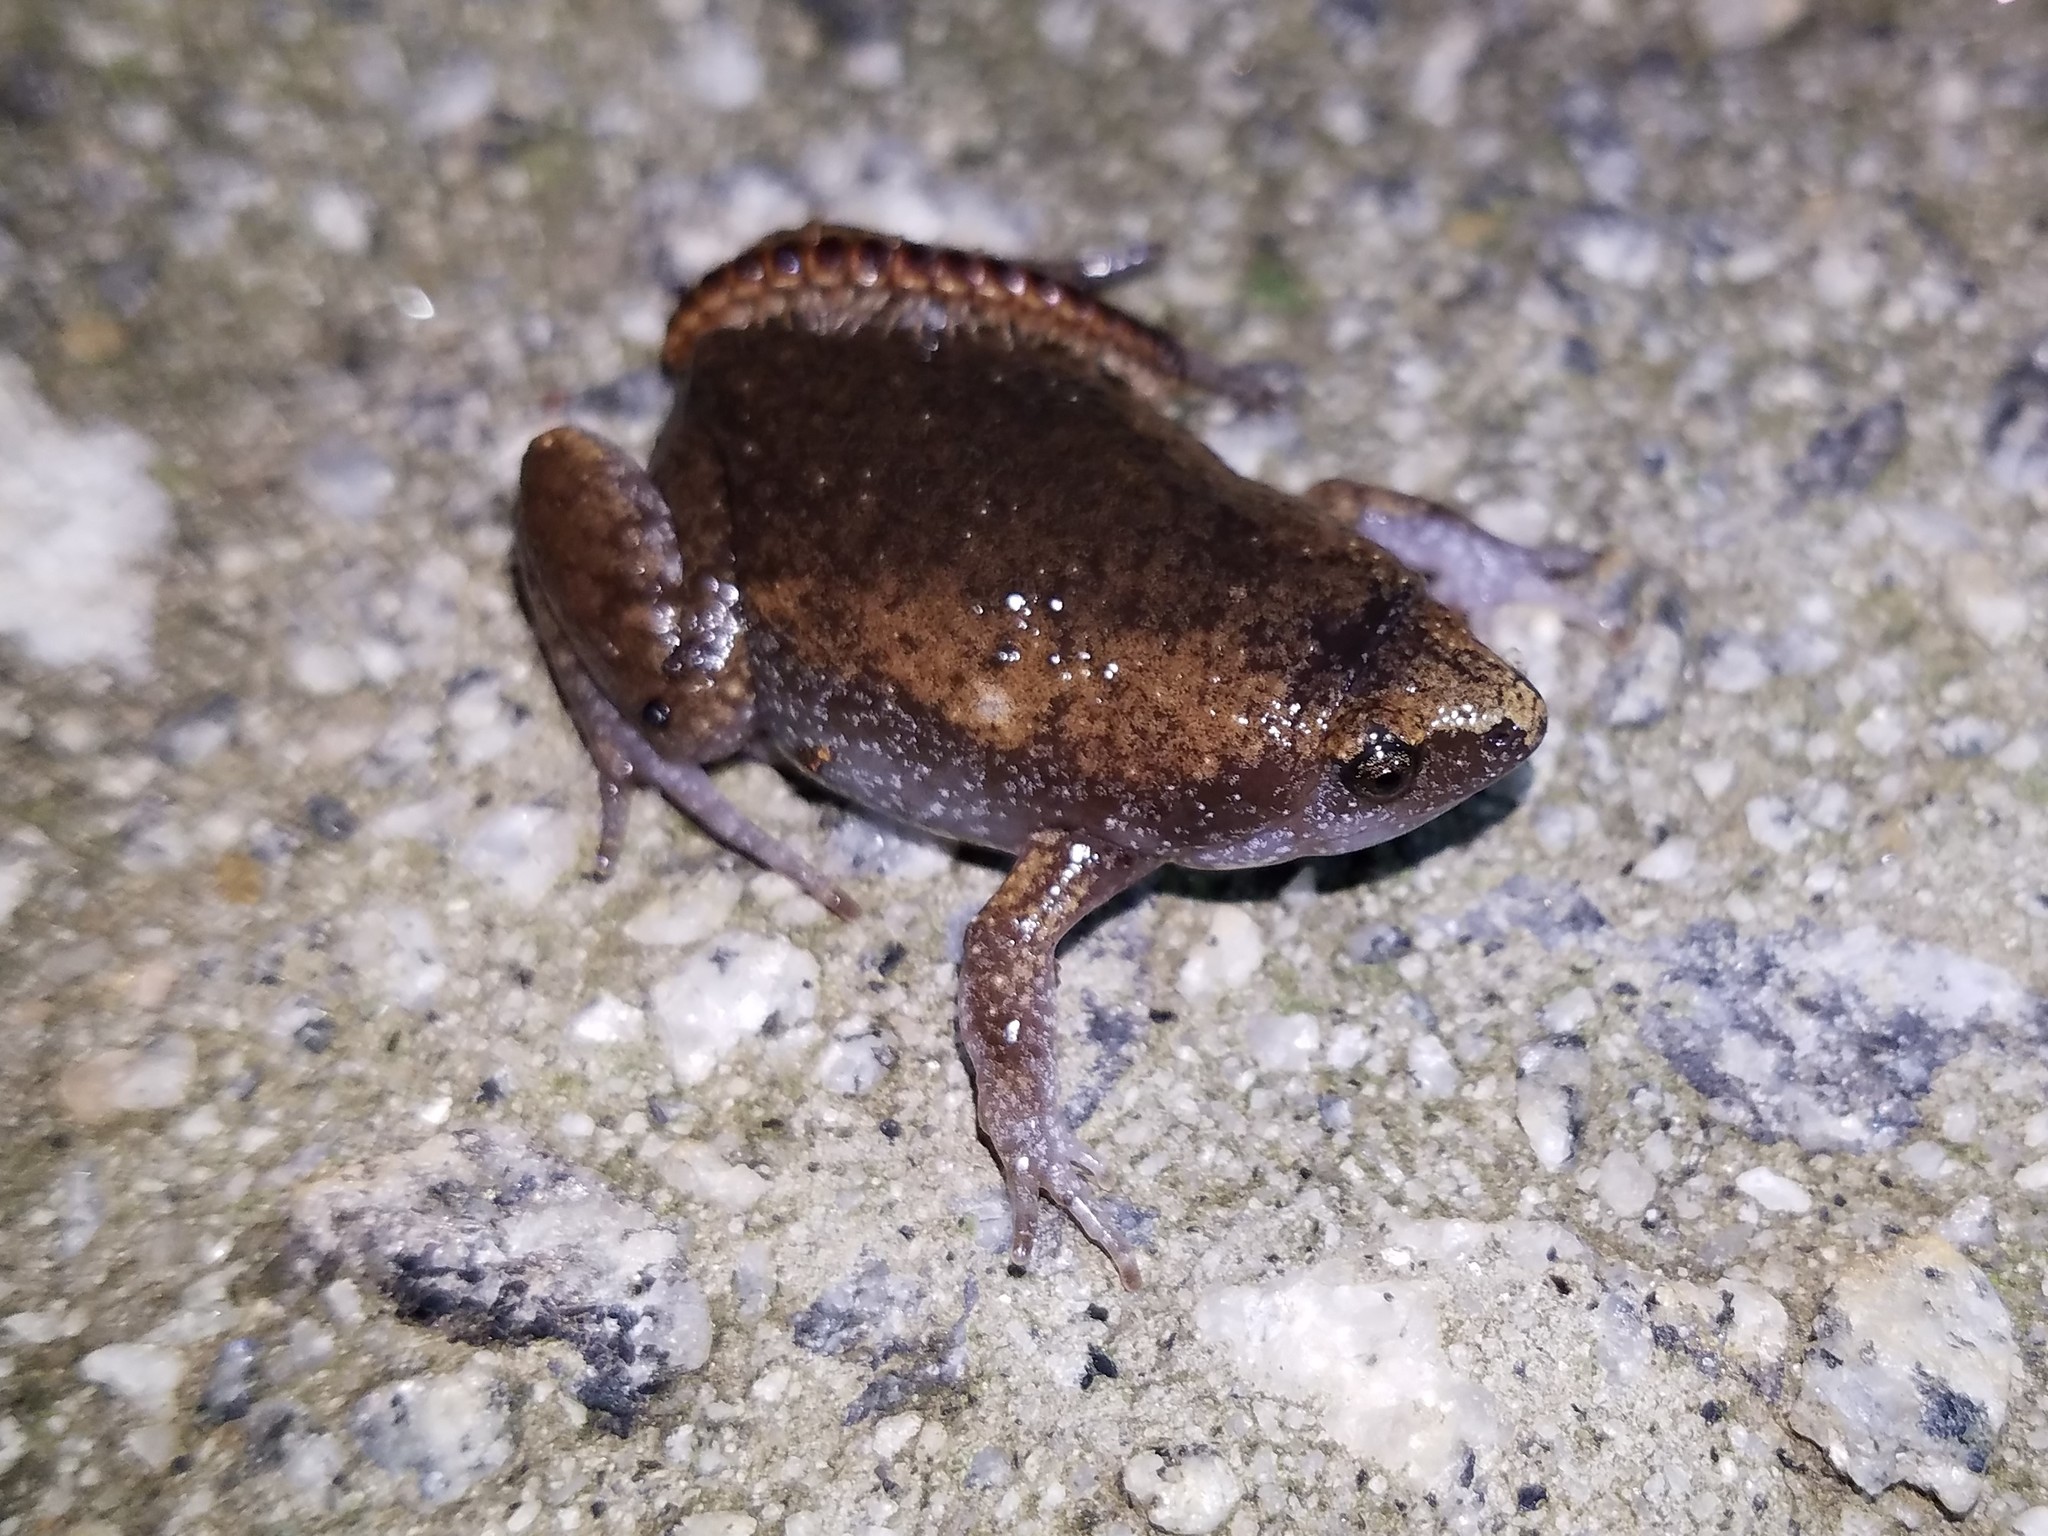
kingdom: Animalia
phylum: Chordata
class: Amphibia
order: Anura
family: Microhylidae
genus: Gastrophryne
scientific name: Gastrophryne carolinensis
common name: Eastern narrowmouth toad
